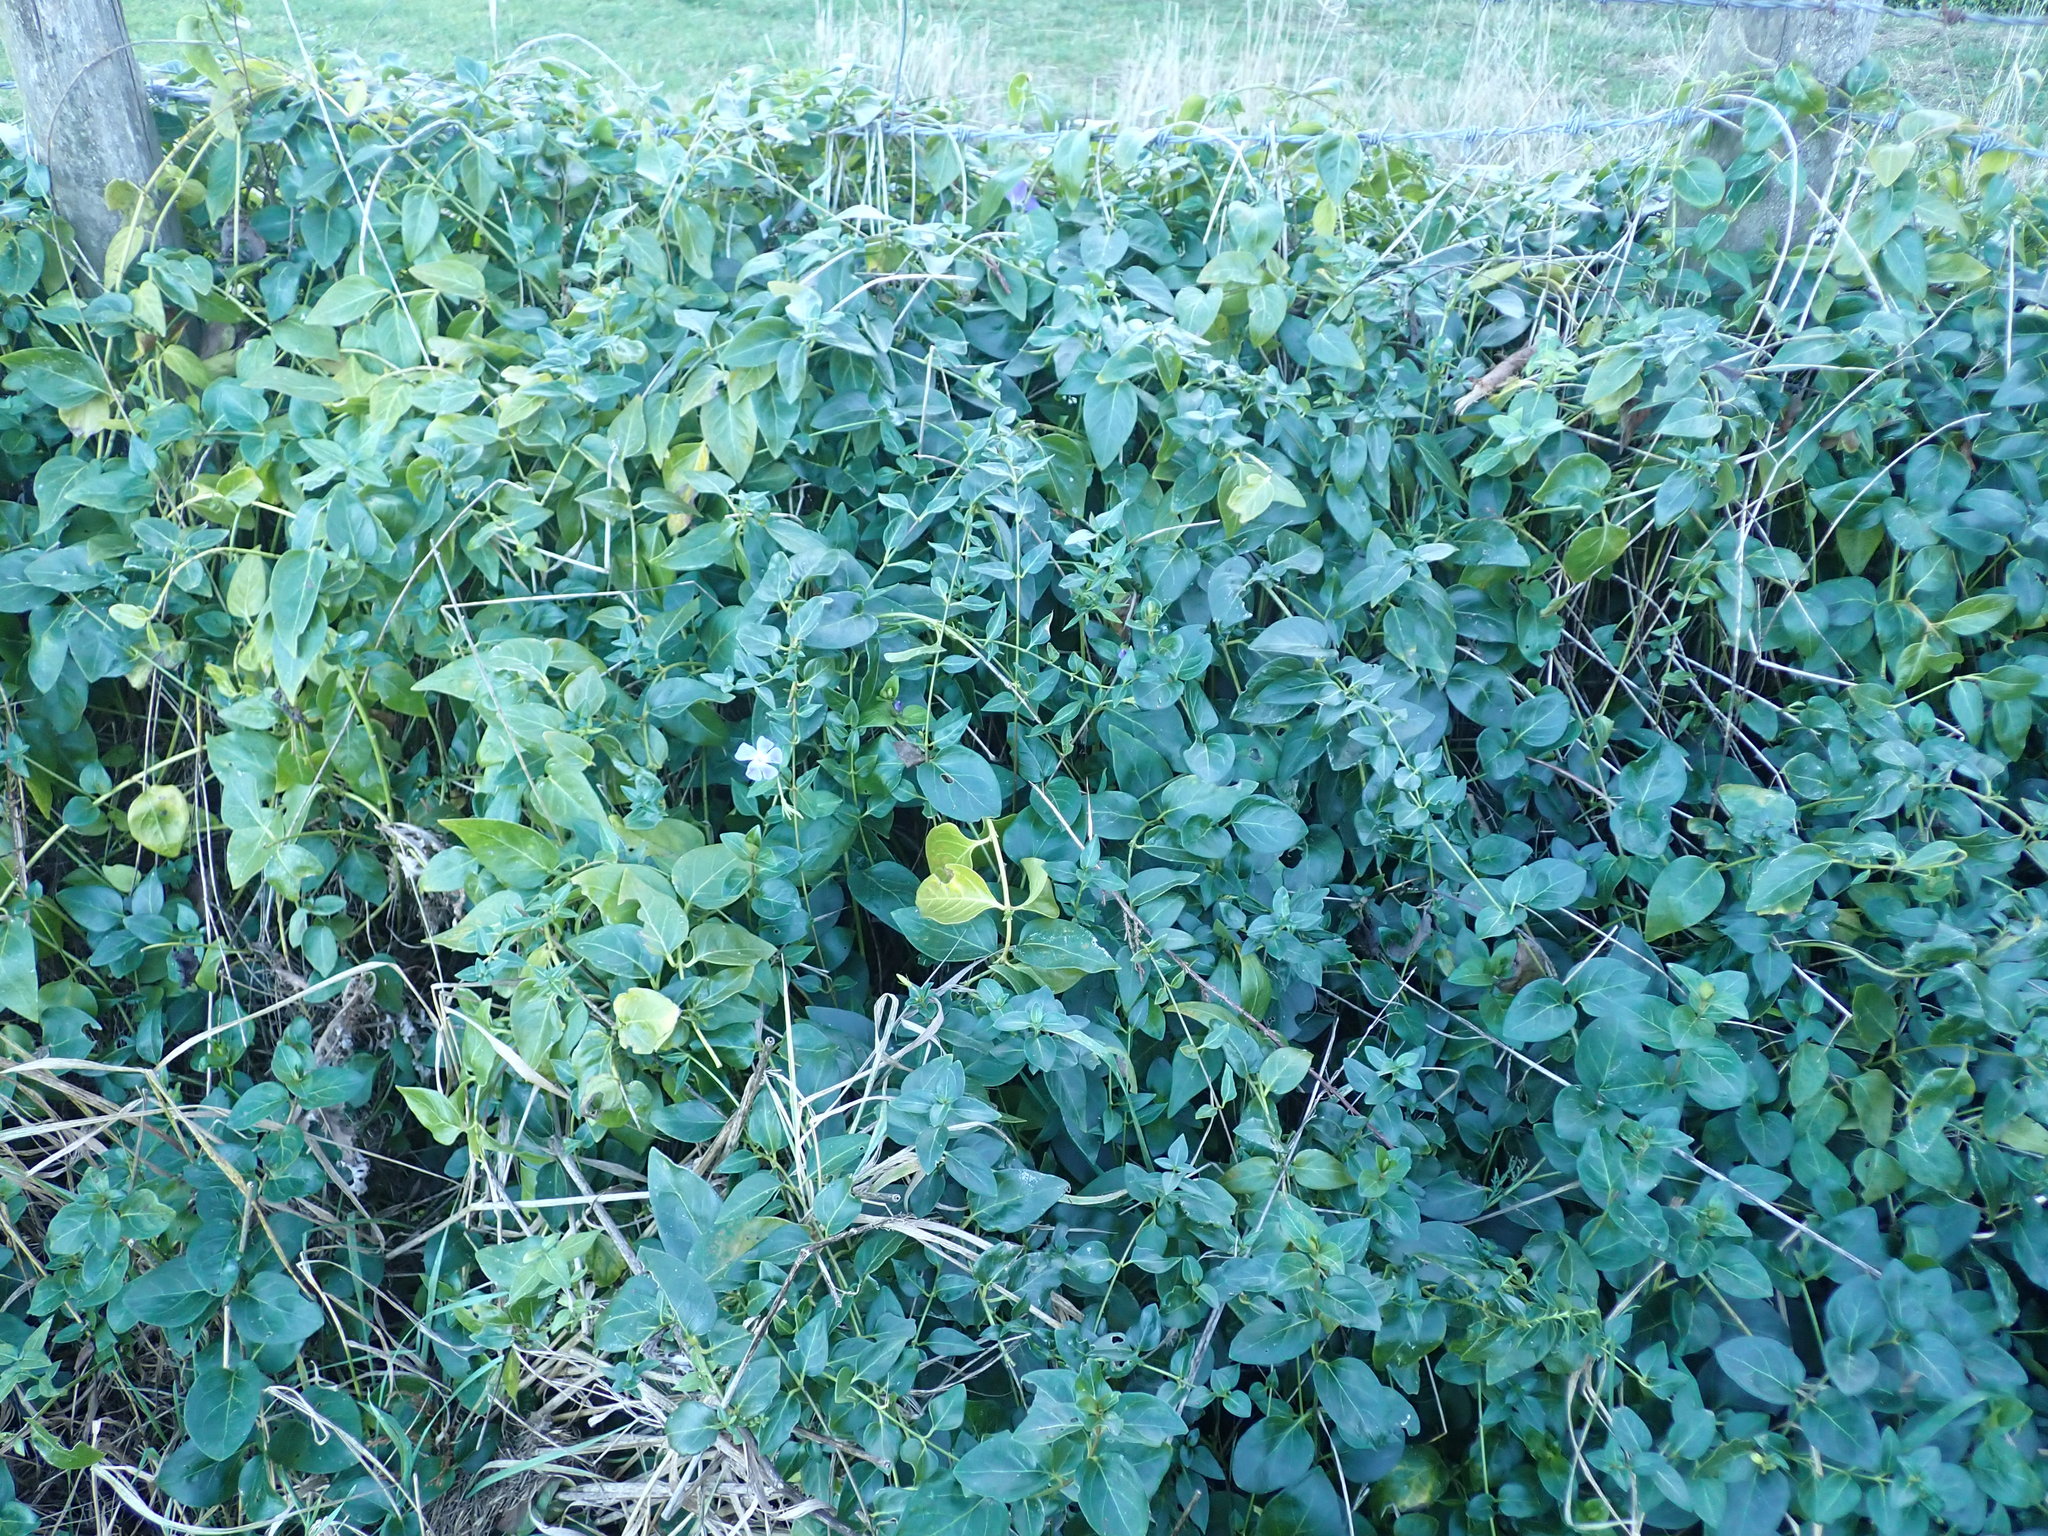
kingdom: Plantae
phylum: Tracheophyta
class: Magnoliopsida
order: Gentianales
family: Apocynaceae
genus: Vinca
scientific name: Vinca major
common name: Greater periwinkle
